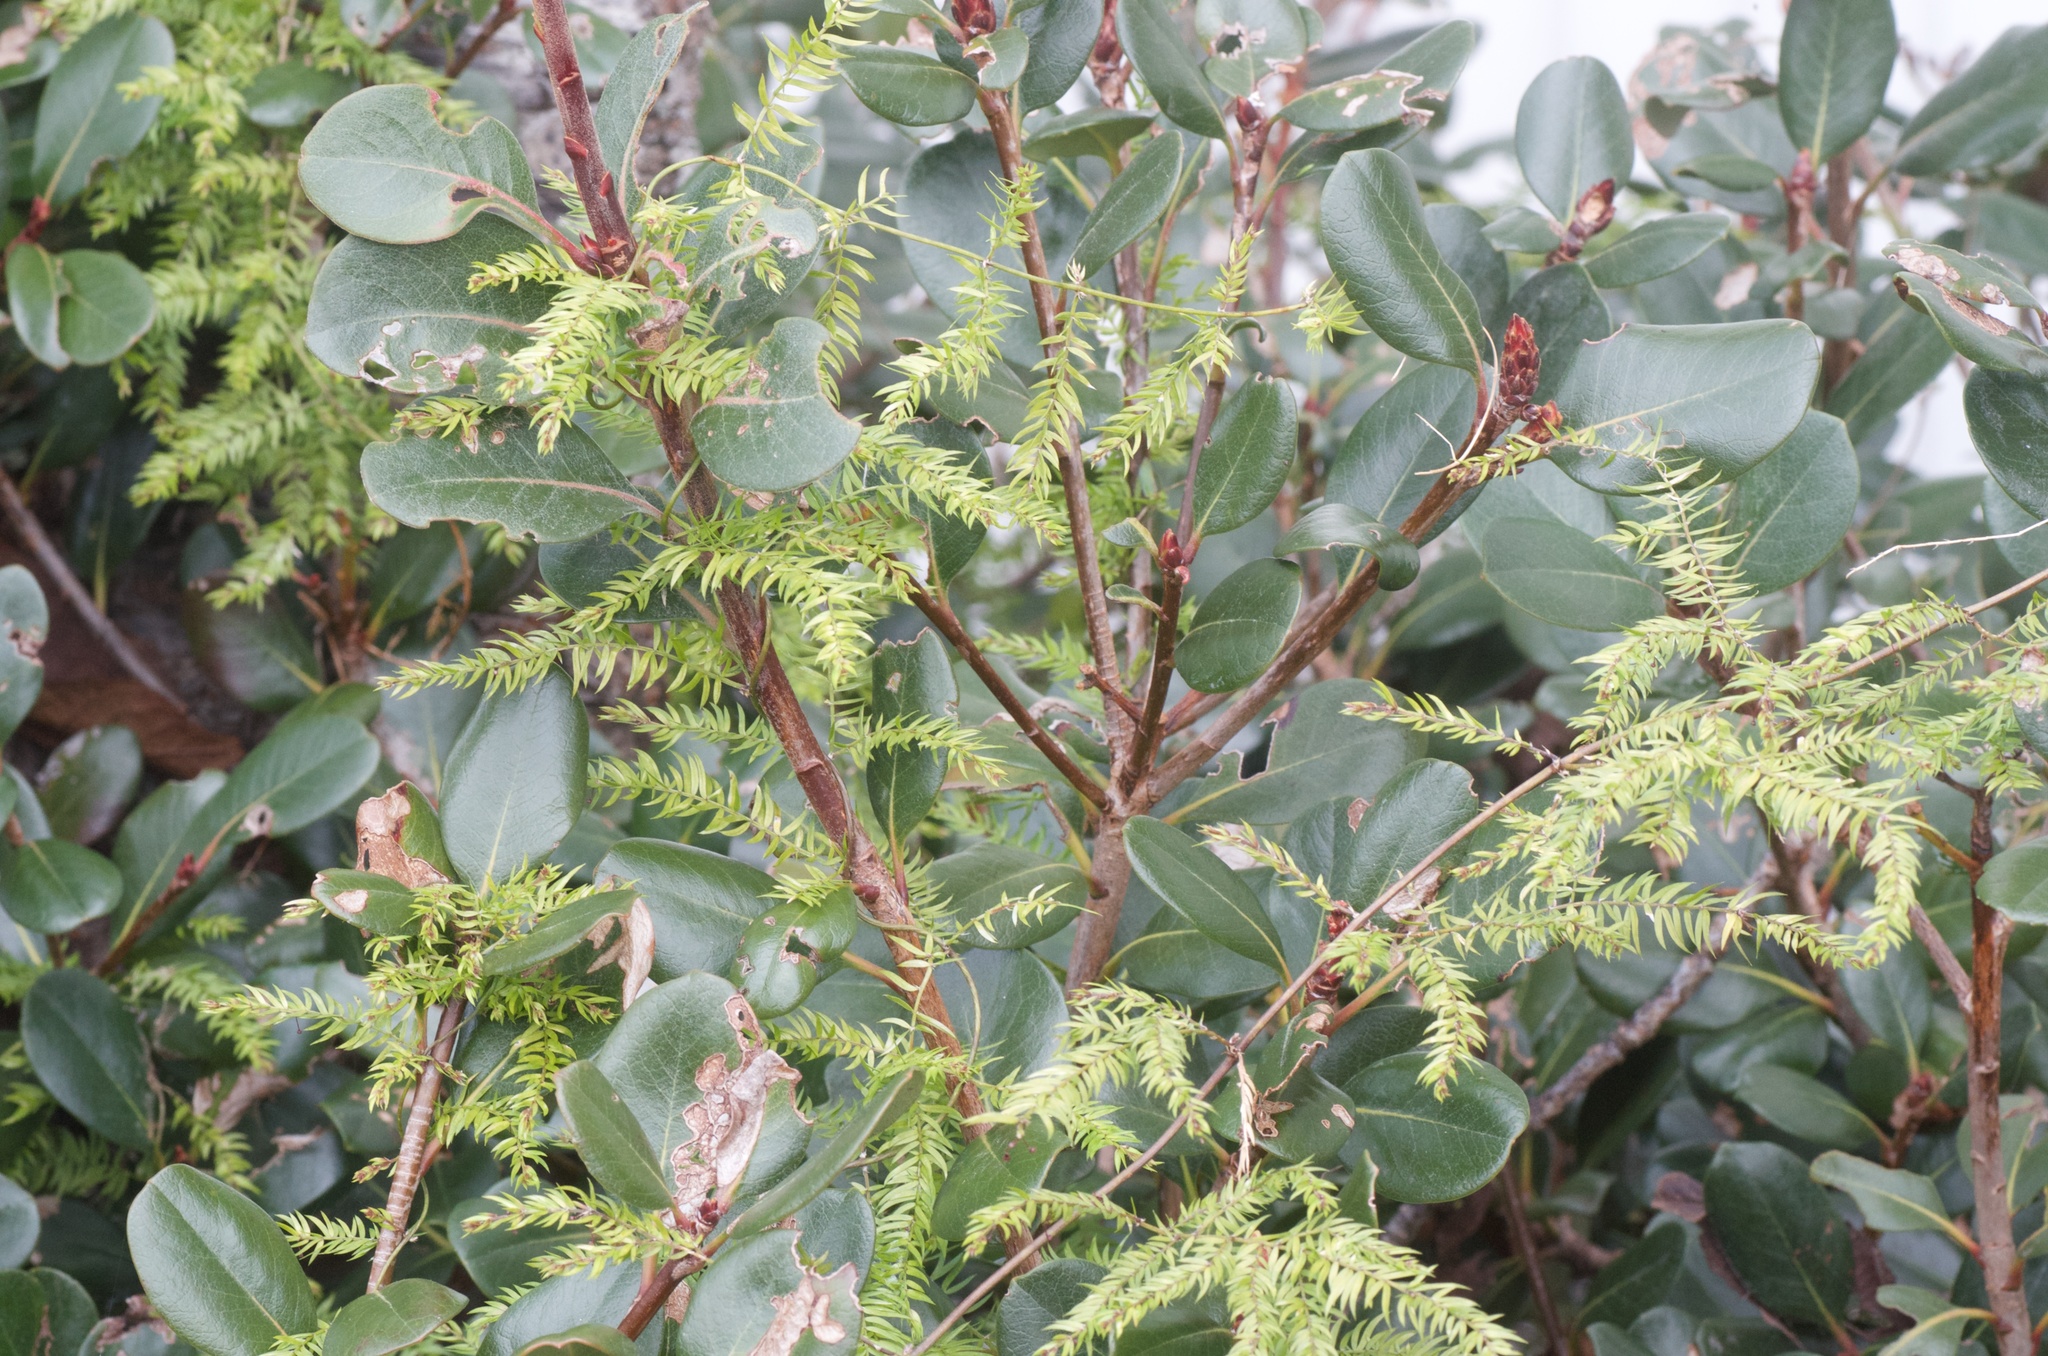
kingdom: Plantae
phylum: Tracheophyta
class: Liliopsida
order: Asparagales
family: Asparagaceae
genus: Asparagus
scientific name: Asparagus scandens
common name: Asparagus-fern
